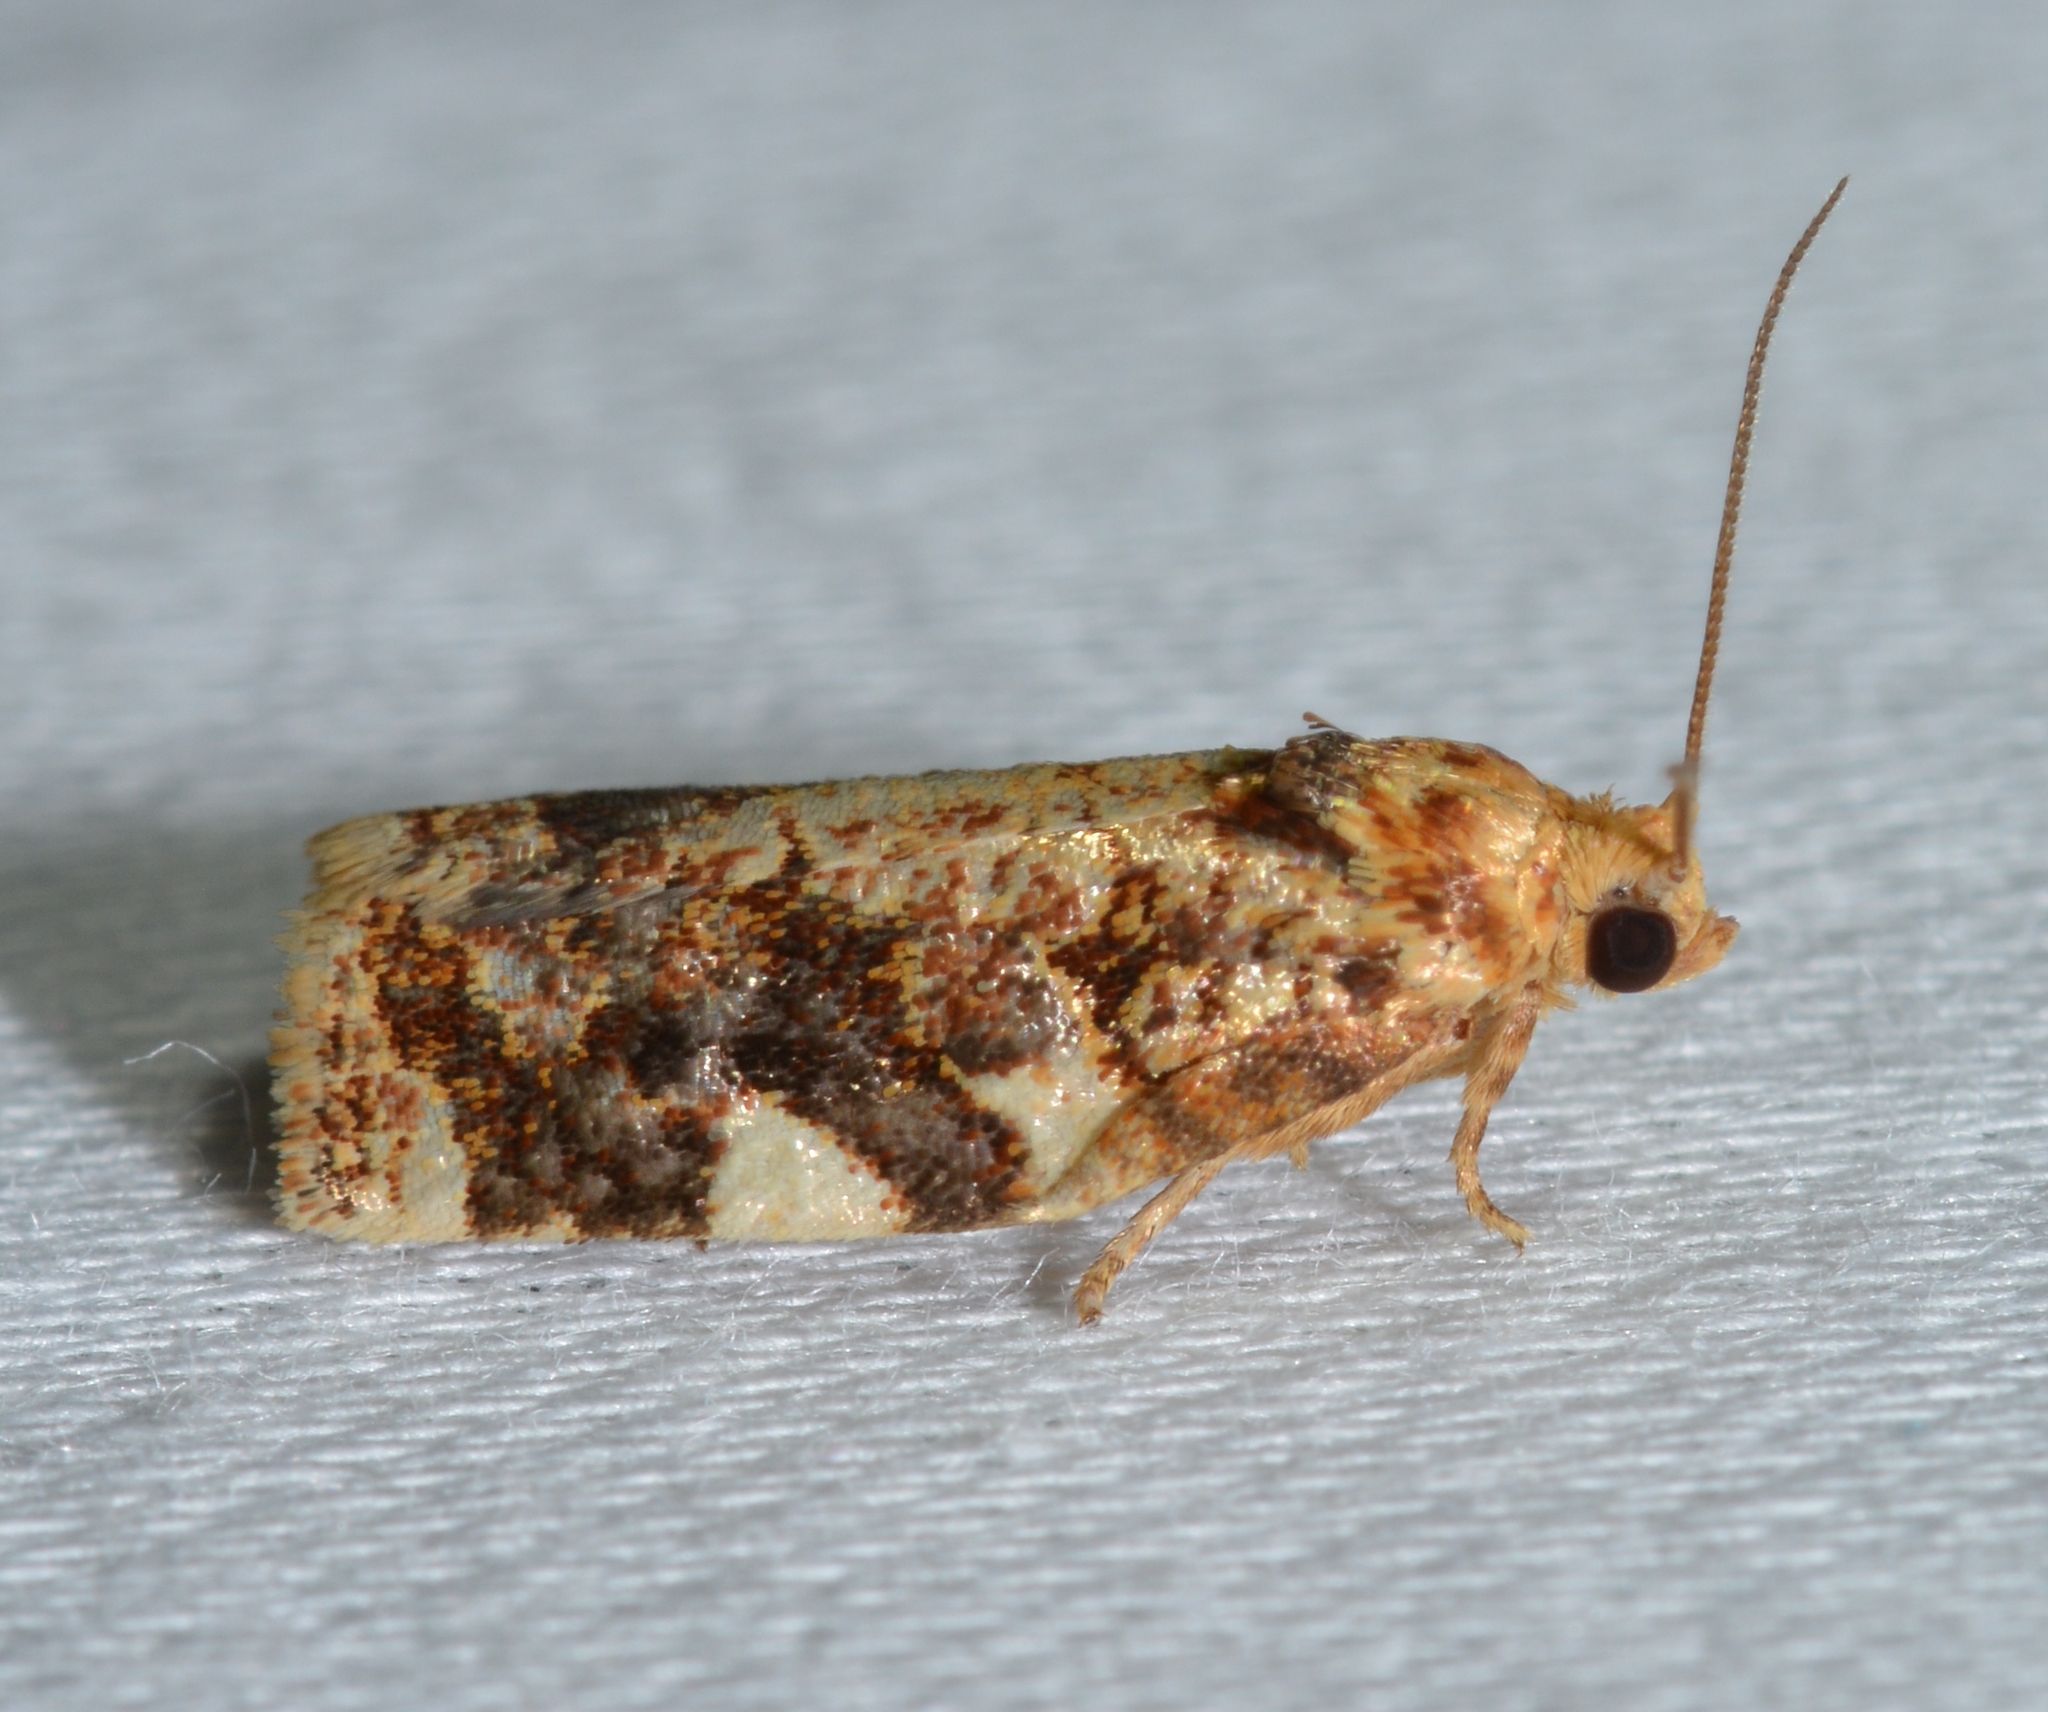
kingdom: Animalia
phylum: Arthropoda
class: Insecta
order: Lepidoptera
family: Tortricidae
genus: Archips
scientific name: Archips argyrospila
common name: Fruit-tree leafroller moth
